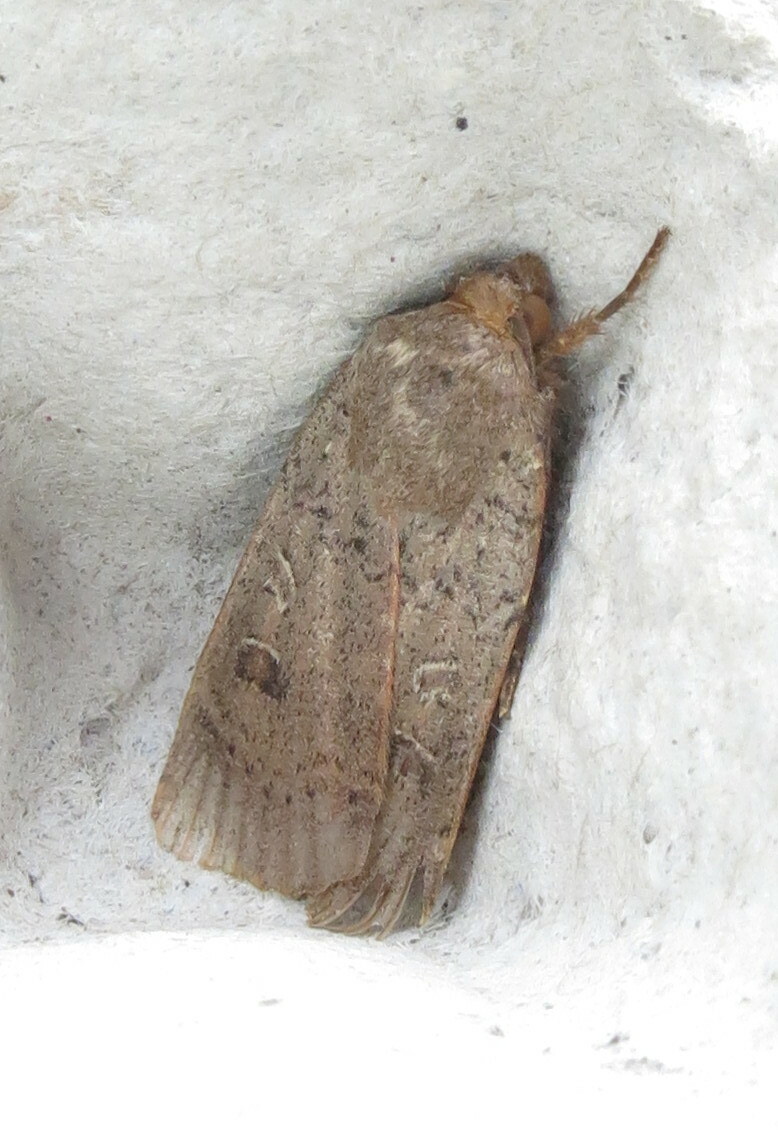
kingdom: Animalia
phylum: Arthropoda
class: Insecta
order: Lepidoptera
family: Noctuidae
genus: Noctua
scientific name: Noctua comes
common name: Lesser yellow underwing
